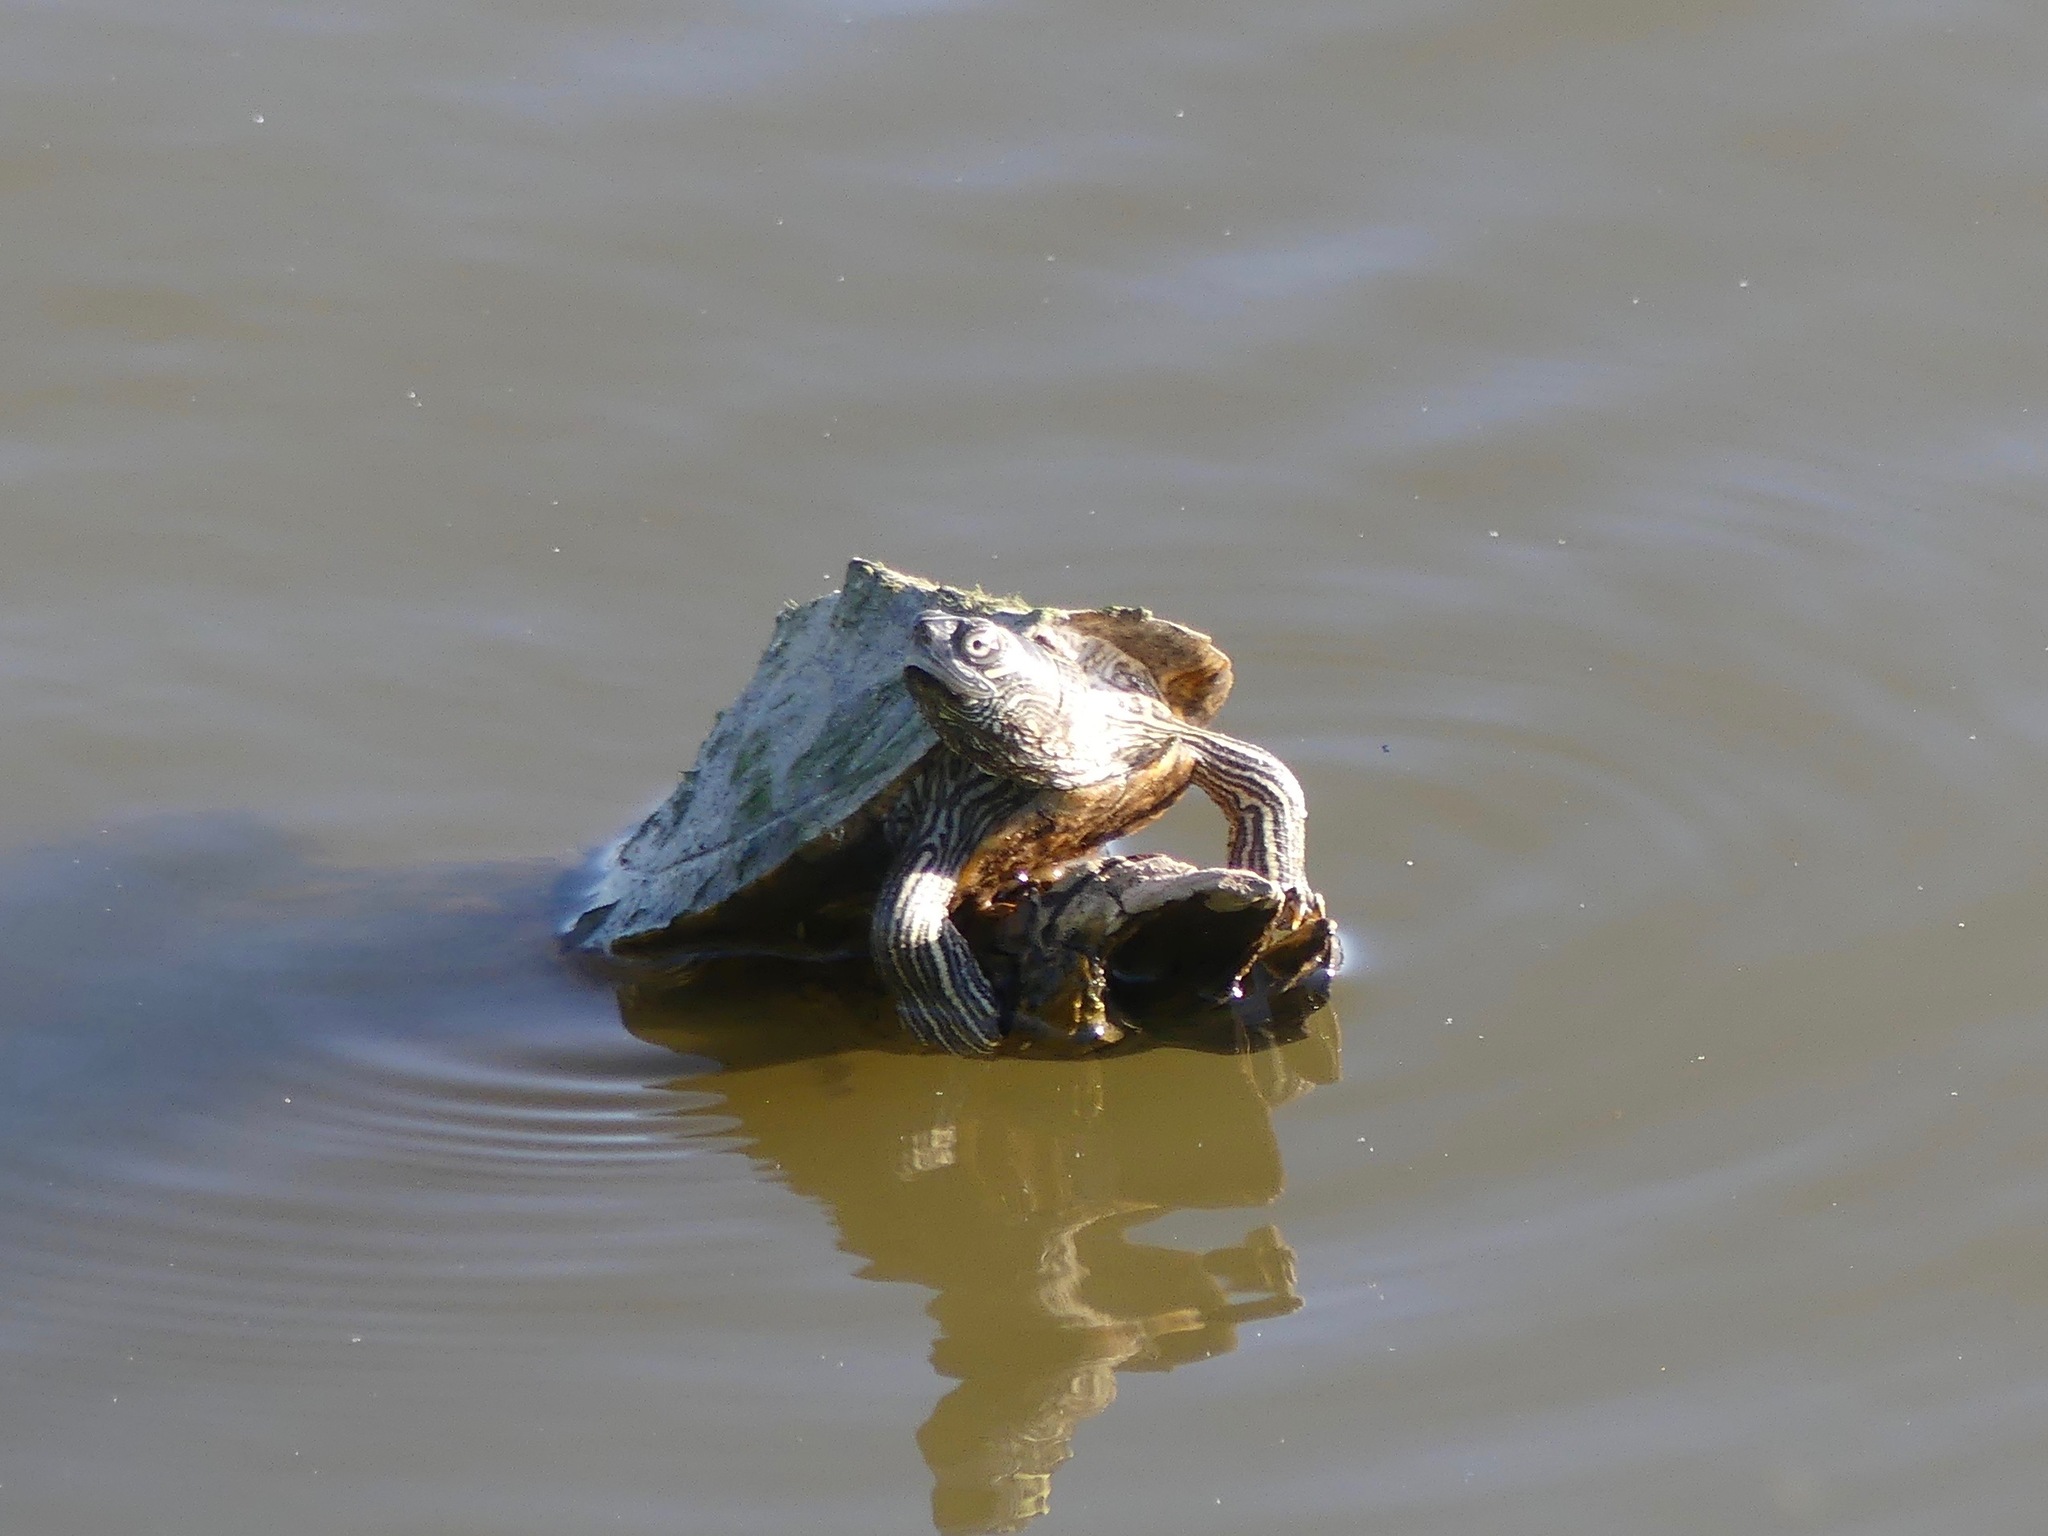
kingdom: Animalia
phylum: Chordata
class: Testudines
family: Emydidae
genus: Graptemys
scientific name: Graptemys pseudogeographica
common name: False map turtle
